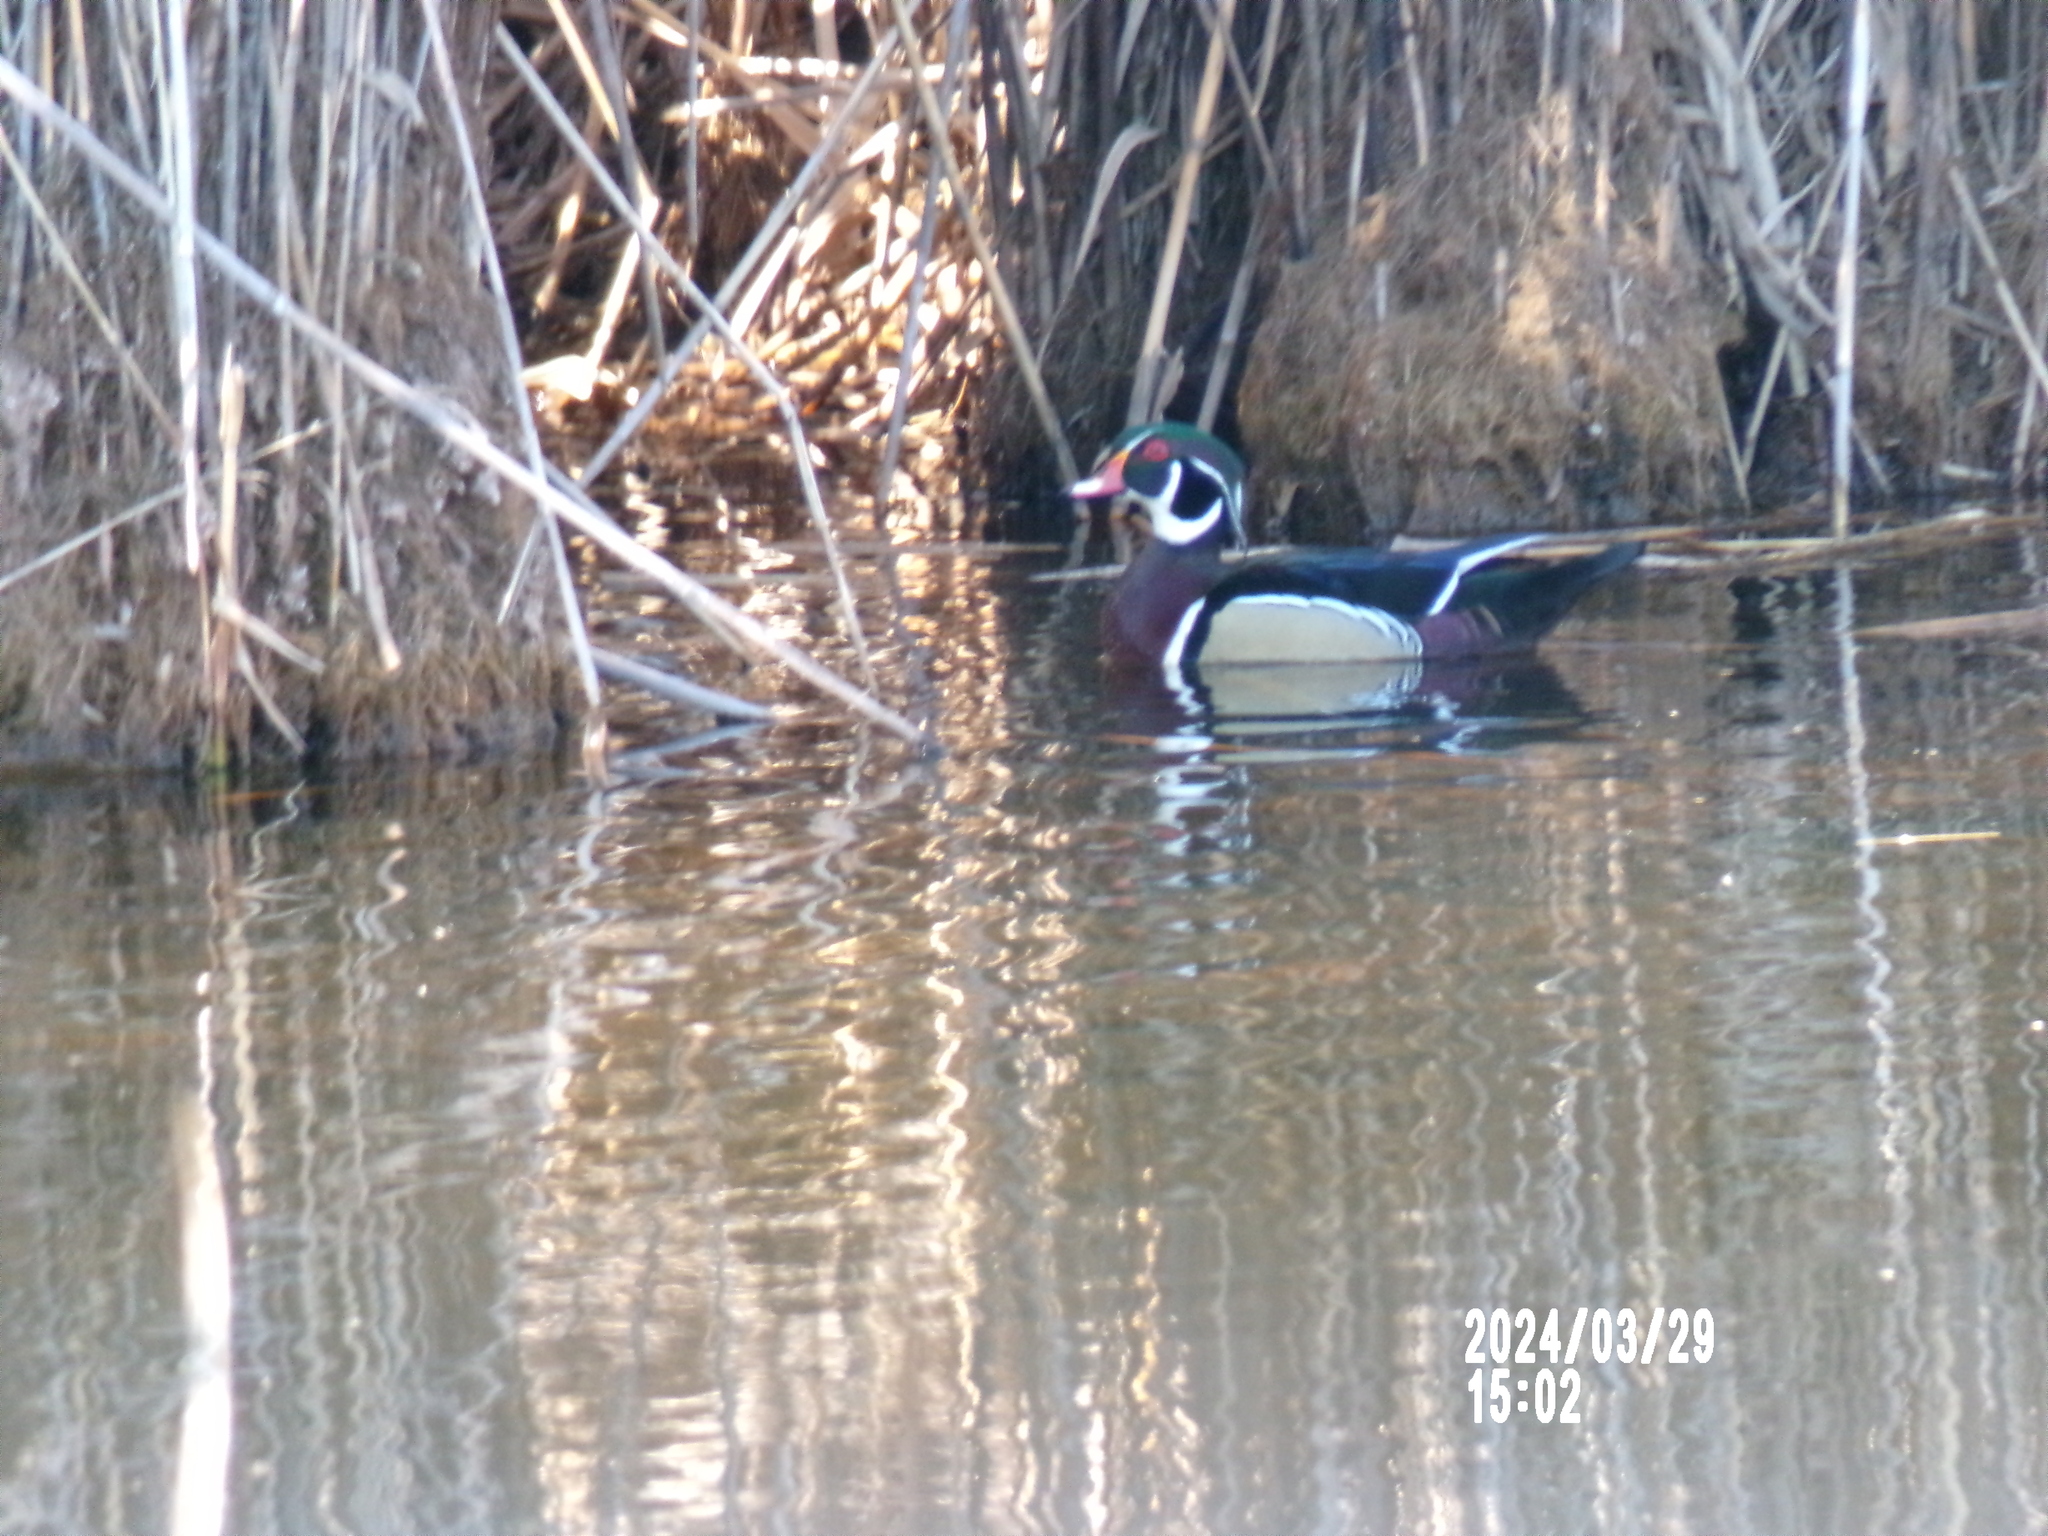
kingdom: Animalia
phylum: Chordata
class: Aves
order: Anseriformes
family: Anatidae
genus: Aix
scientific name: Aix sponsa
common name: Wood duck
